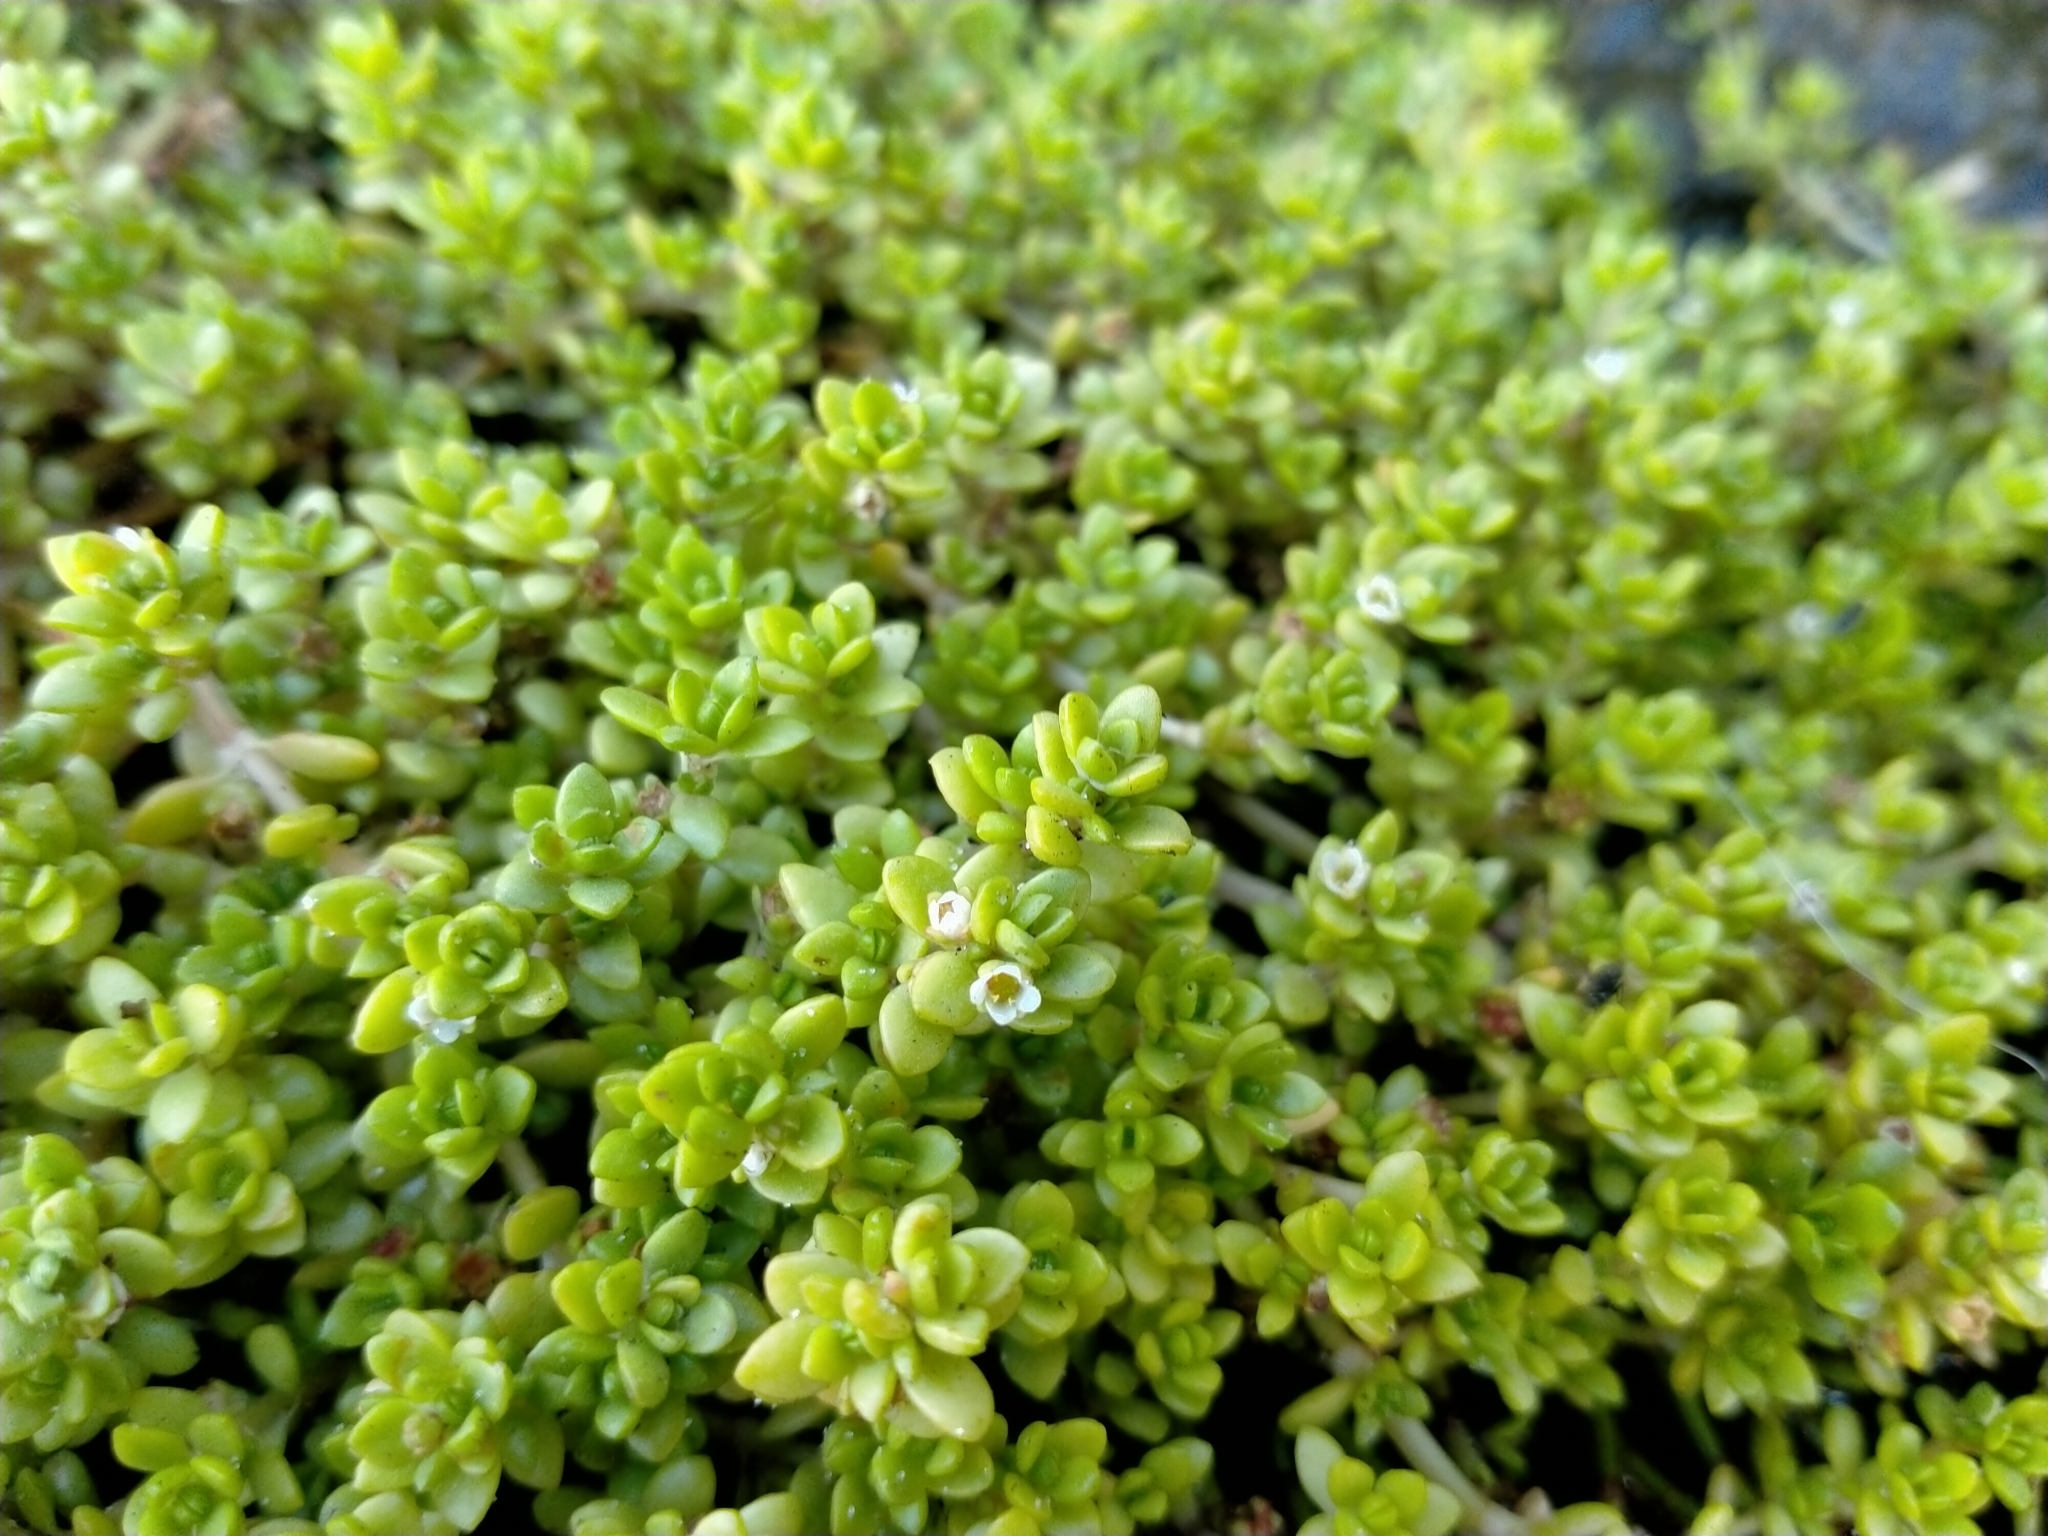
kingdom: Plantae
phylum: Tracheophyta
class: Magnoliopsida
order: Saxifragales
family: Crassulaceae
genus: Crassula
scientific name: Crassula moschata
